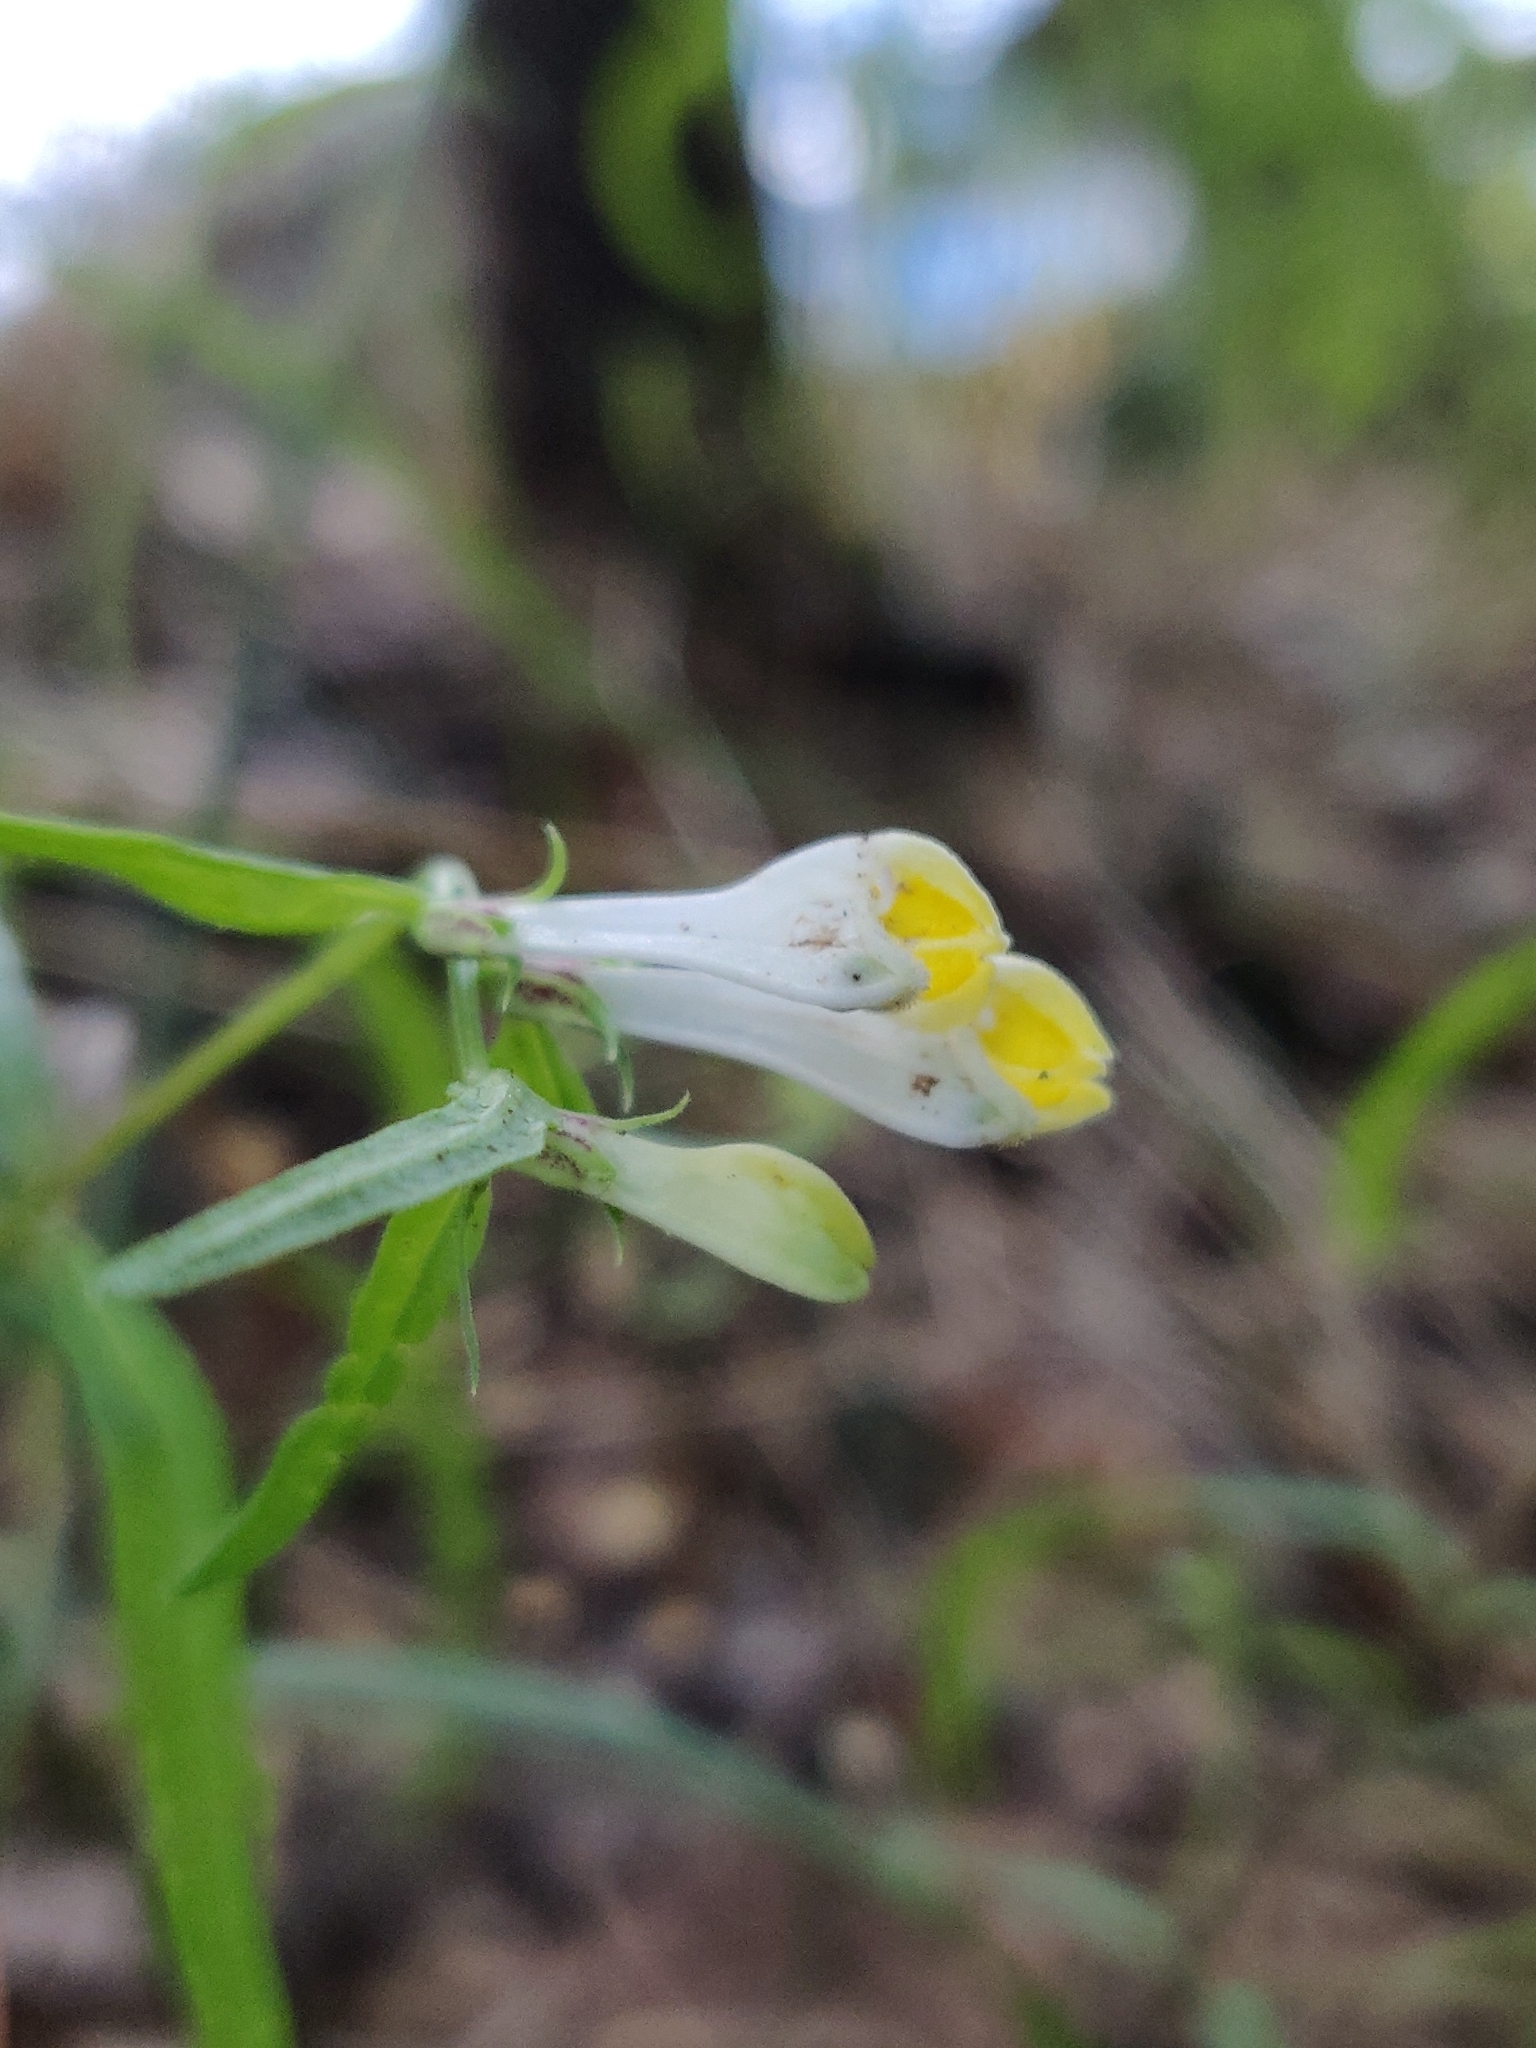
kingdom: Plantae
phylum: Tracheophyta
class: Magnoliopsida
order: Lamiales
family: Orobanchaceae
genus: Melampyrum
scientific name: Melampyrum pratense
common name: Common cow-wheat
